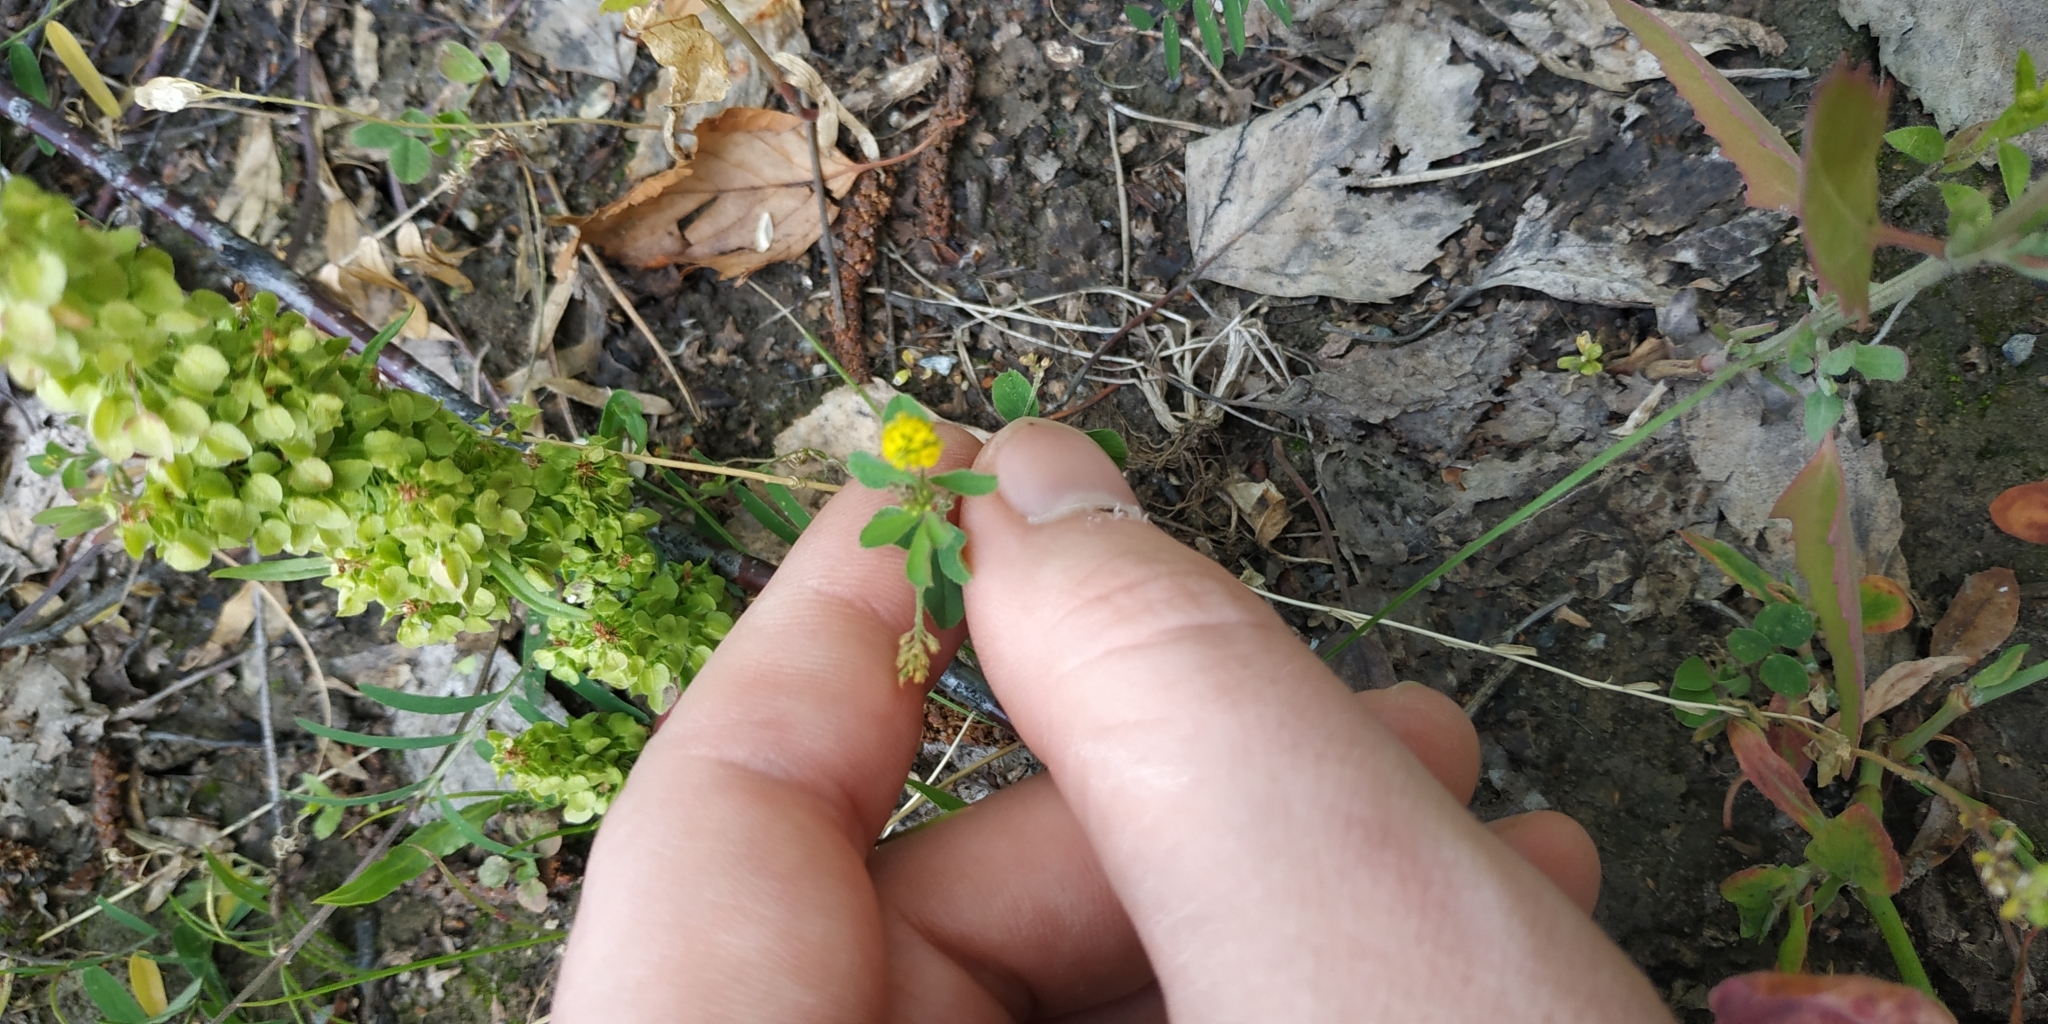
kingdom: Plantae
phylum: Tracheophyta
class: Magnoliopsida
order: Fabales
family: Fabaceae
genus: Medicago
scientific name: Medicago lupulina
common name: Black medick
